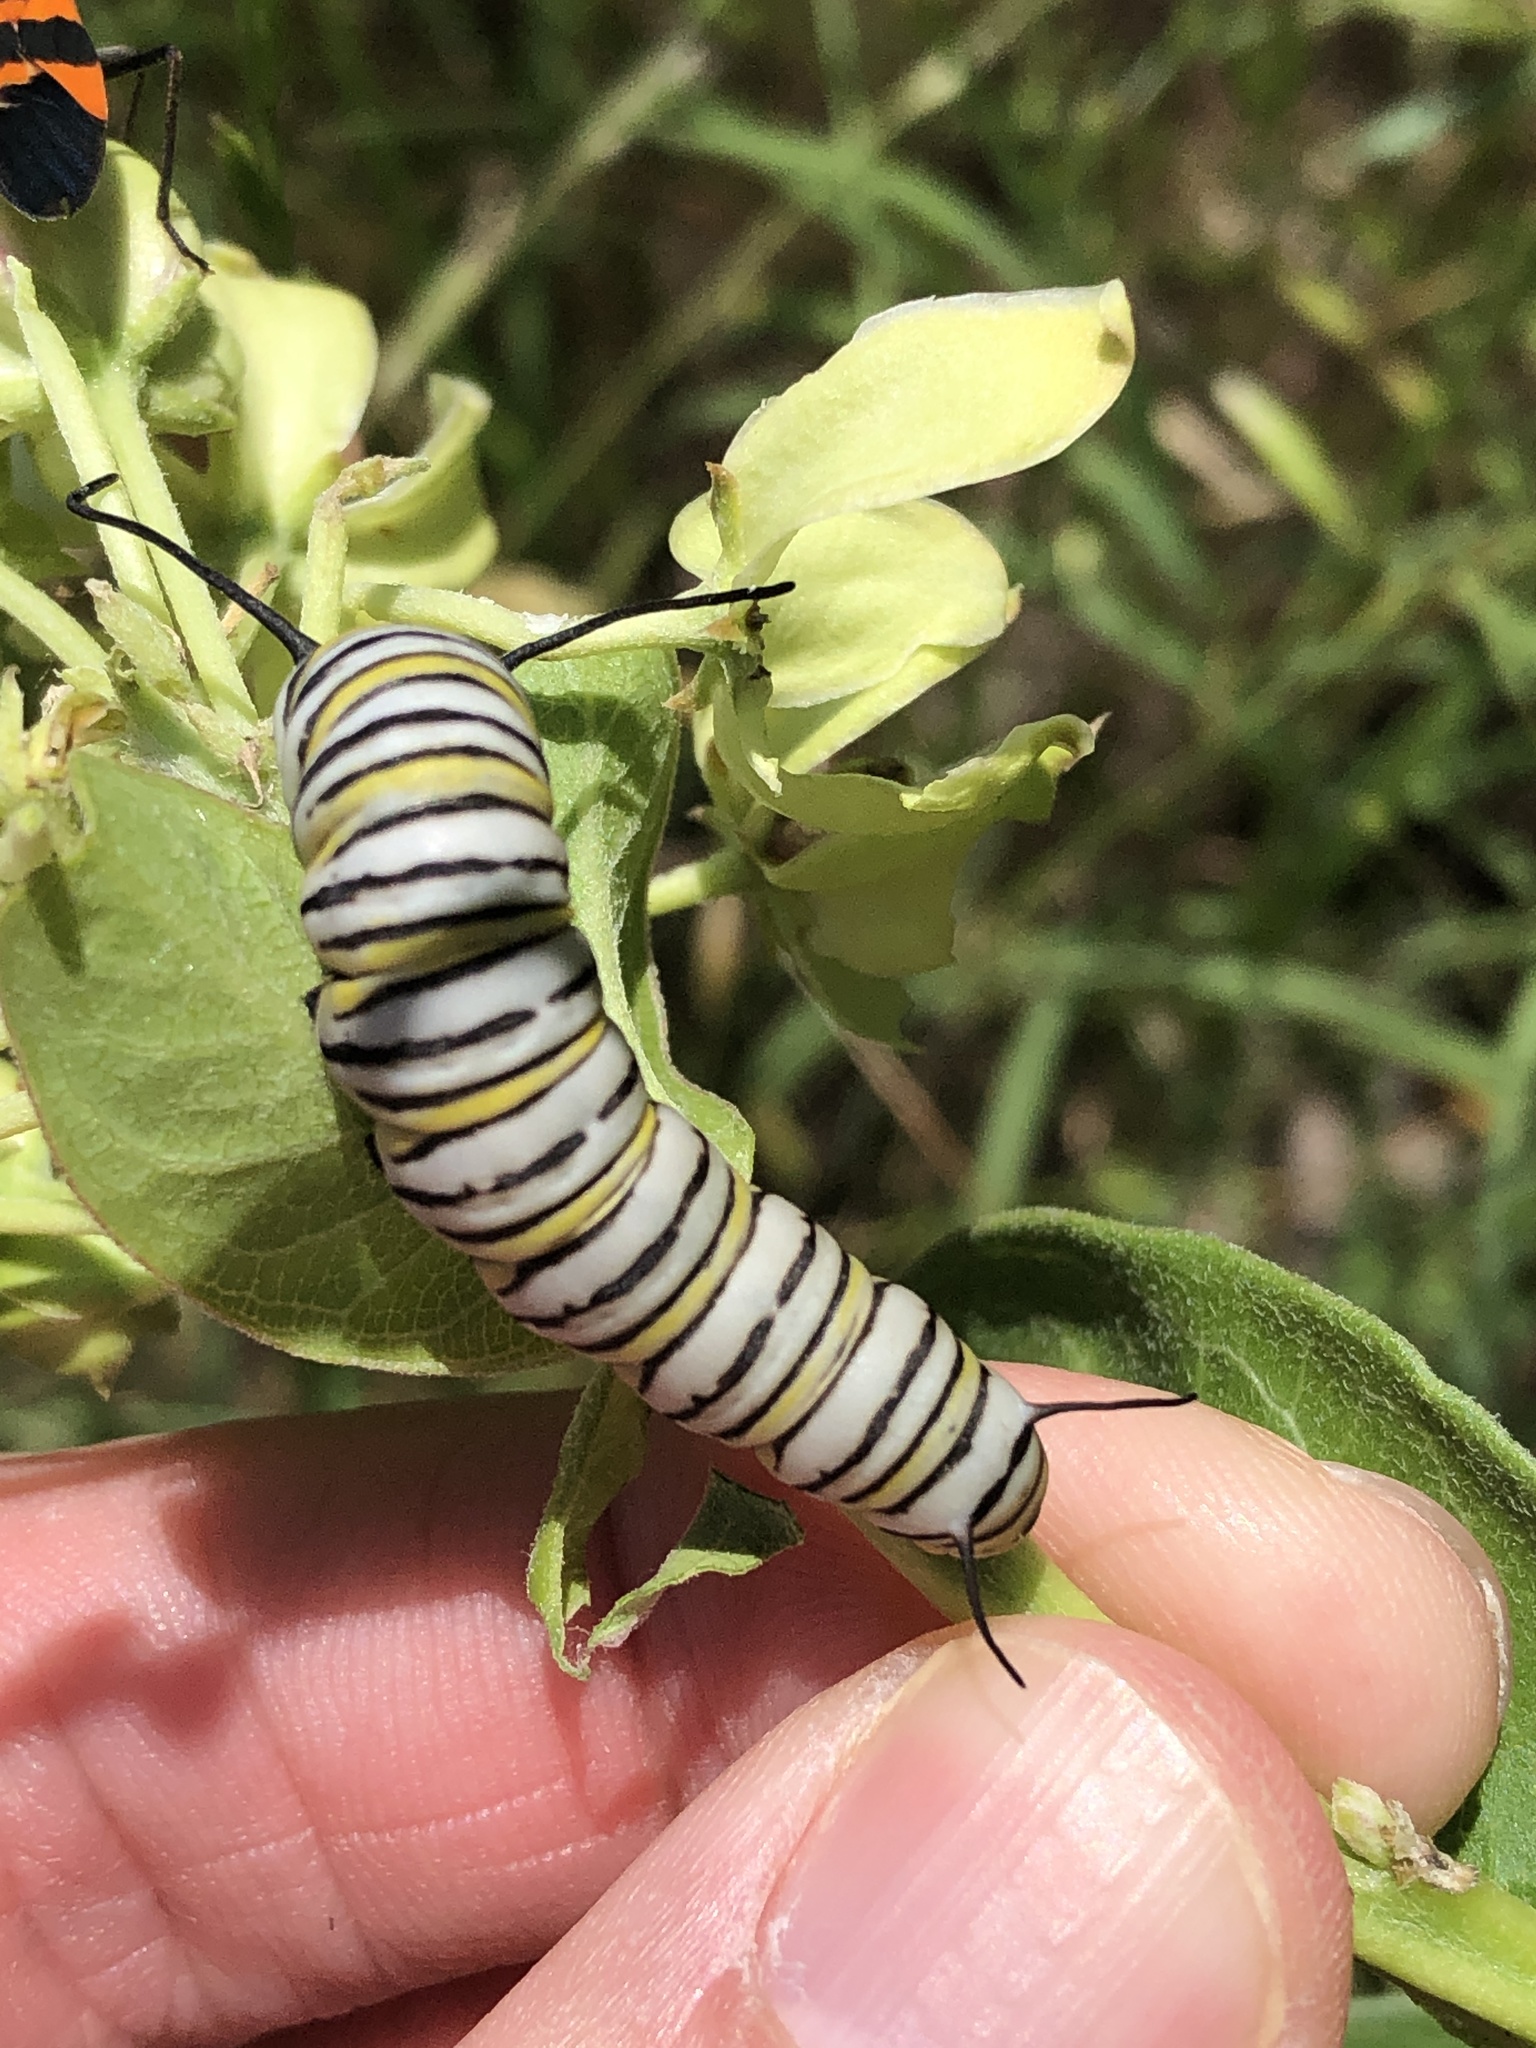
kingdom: Animalia
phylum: Arthropoda
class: Insecta
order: Lepidoptera
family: Nymphalidae
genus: Danaus
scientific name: Danaus plexippus
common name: Monarch
